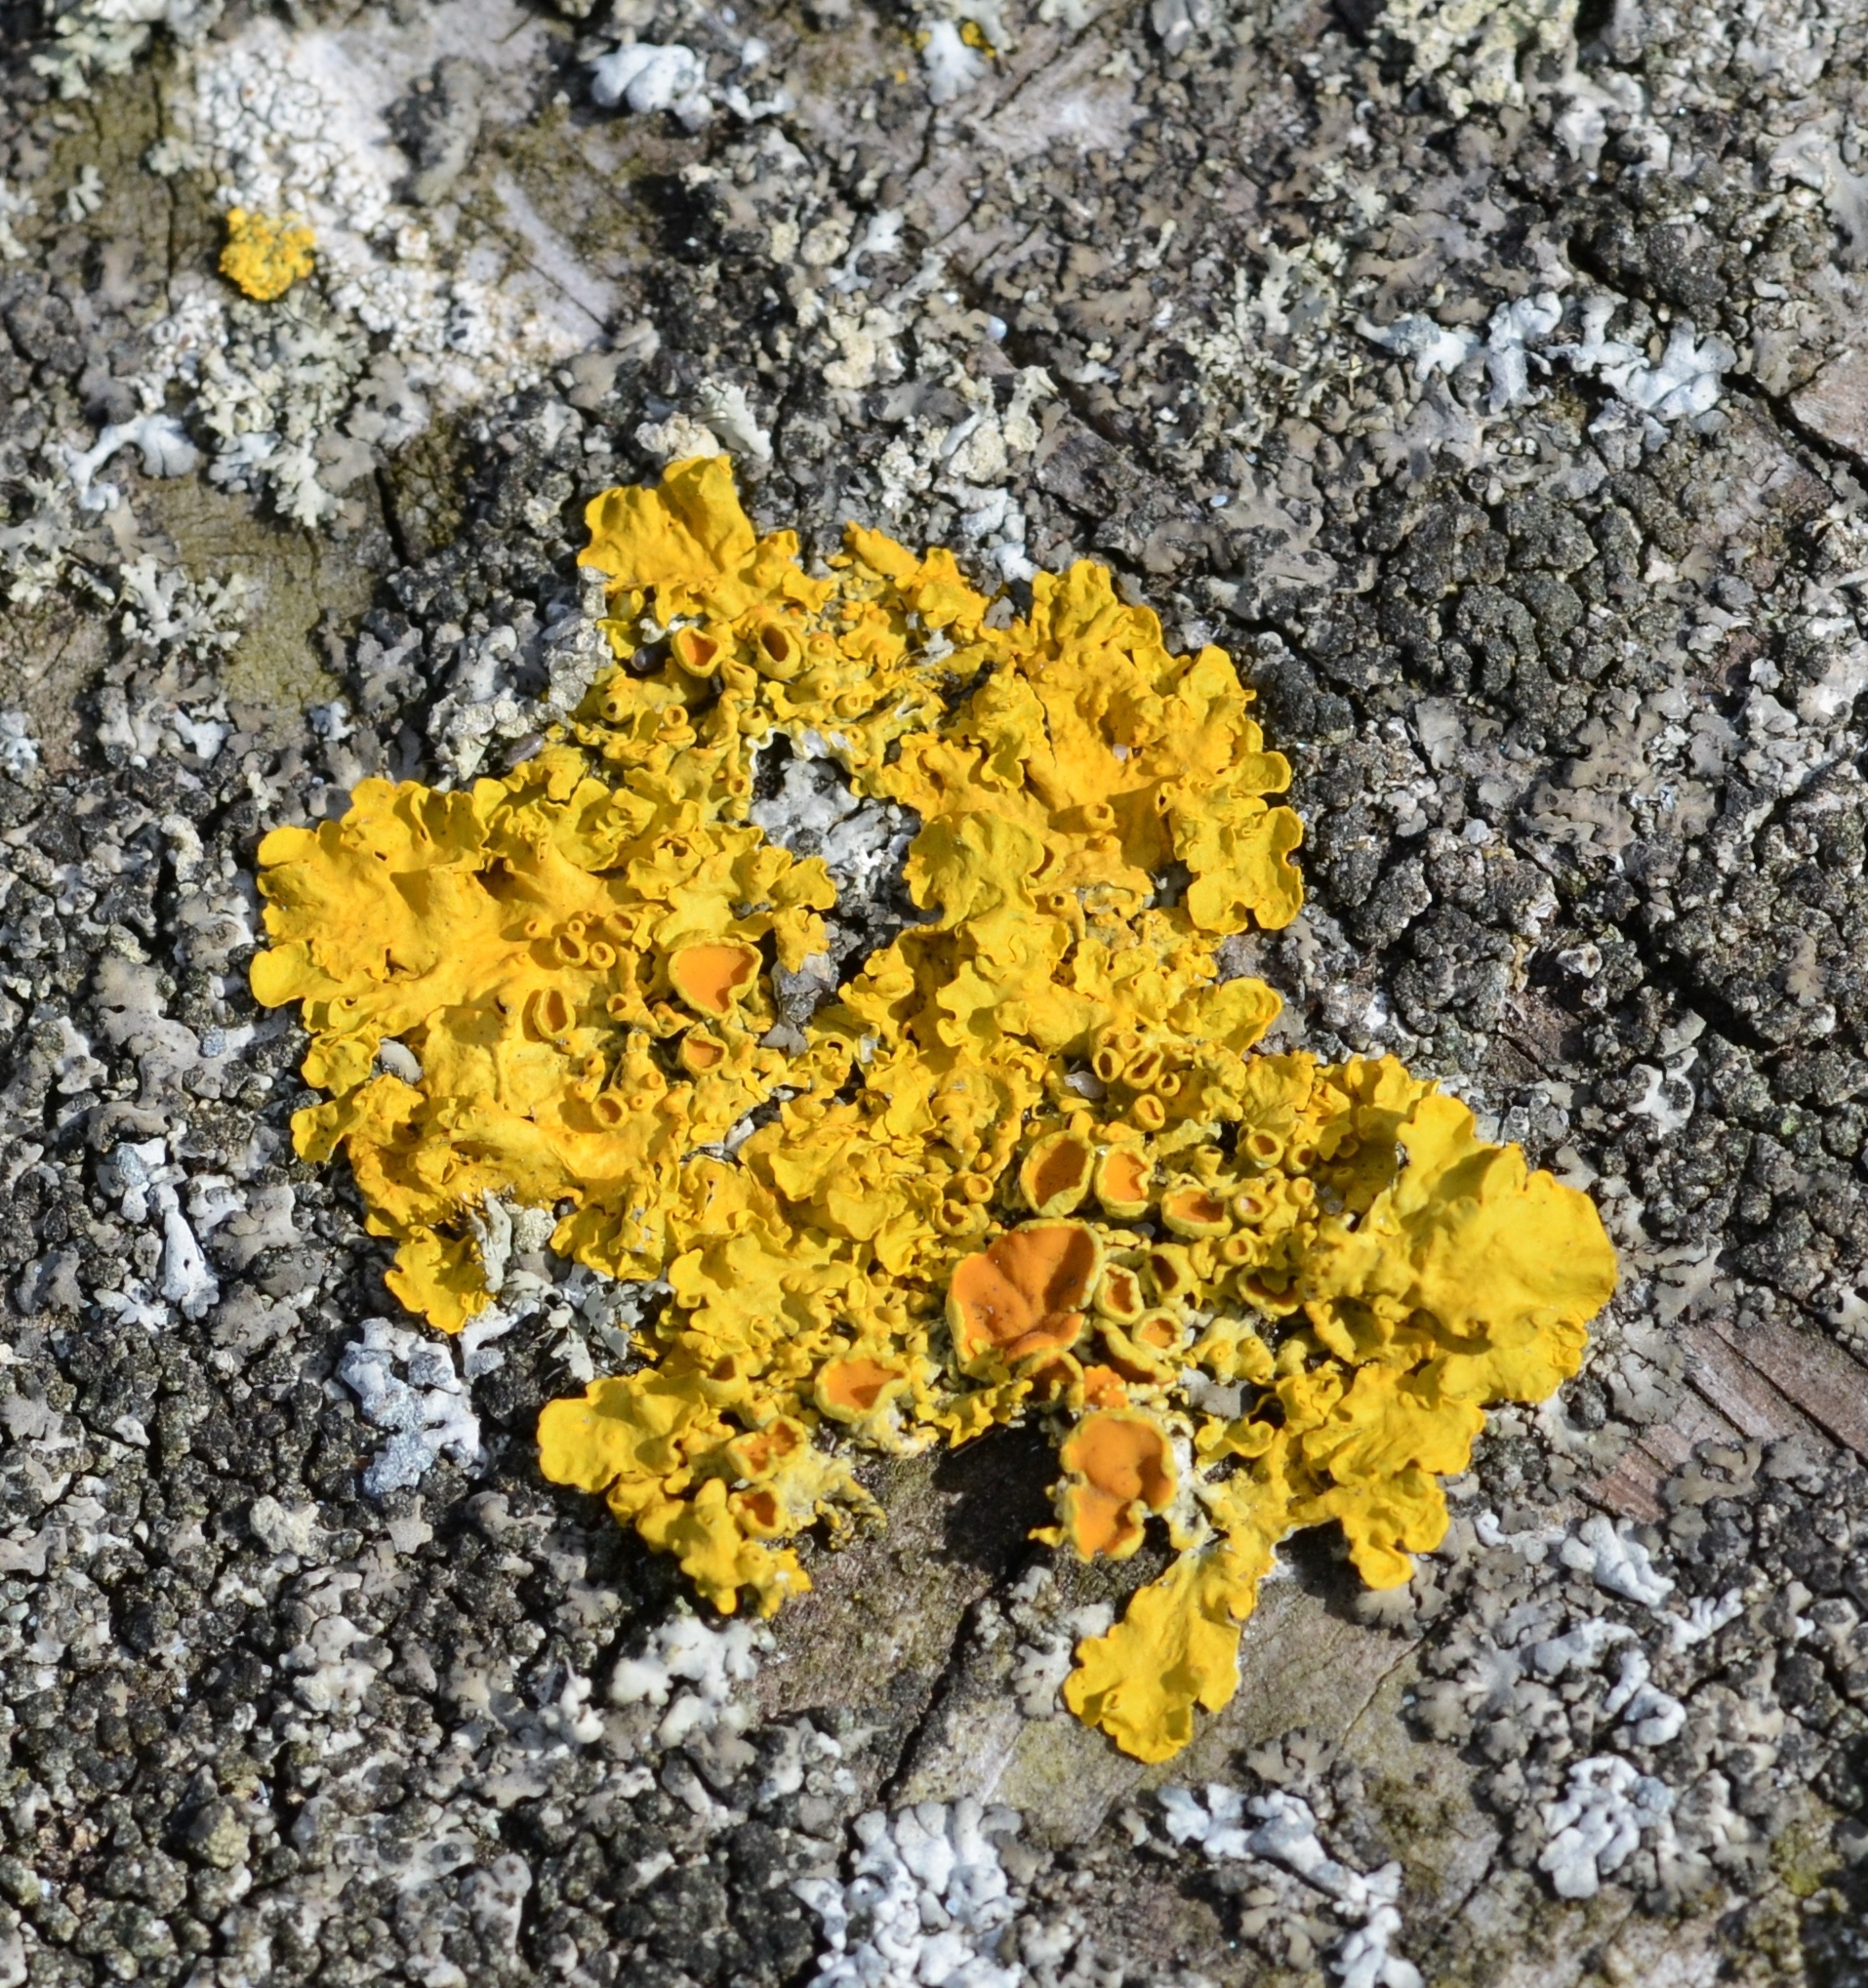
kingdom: Fungi
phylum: Ascomycota
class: Lecanoromycetes
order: Teloschistales
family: Teloschistaceae
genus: Xanthoria
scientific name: Xanthoria parietina
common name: Common orange lichen
